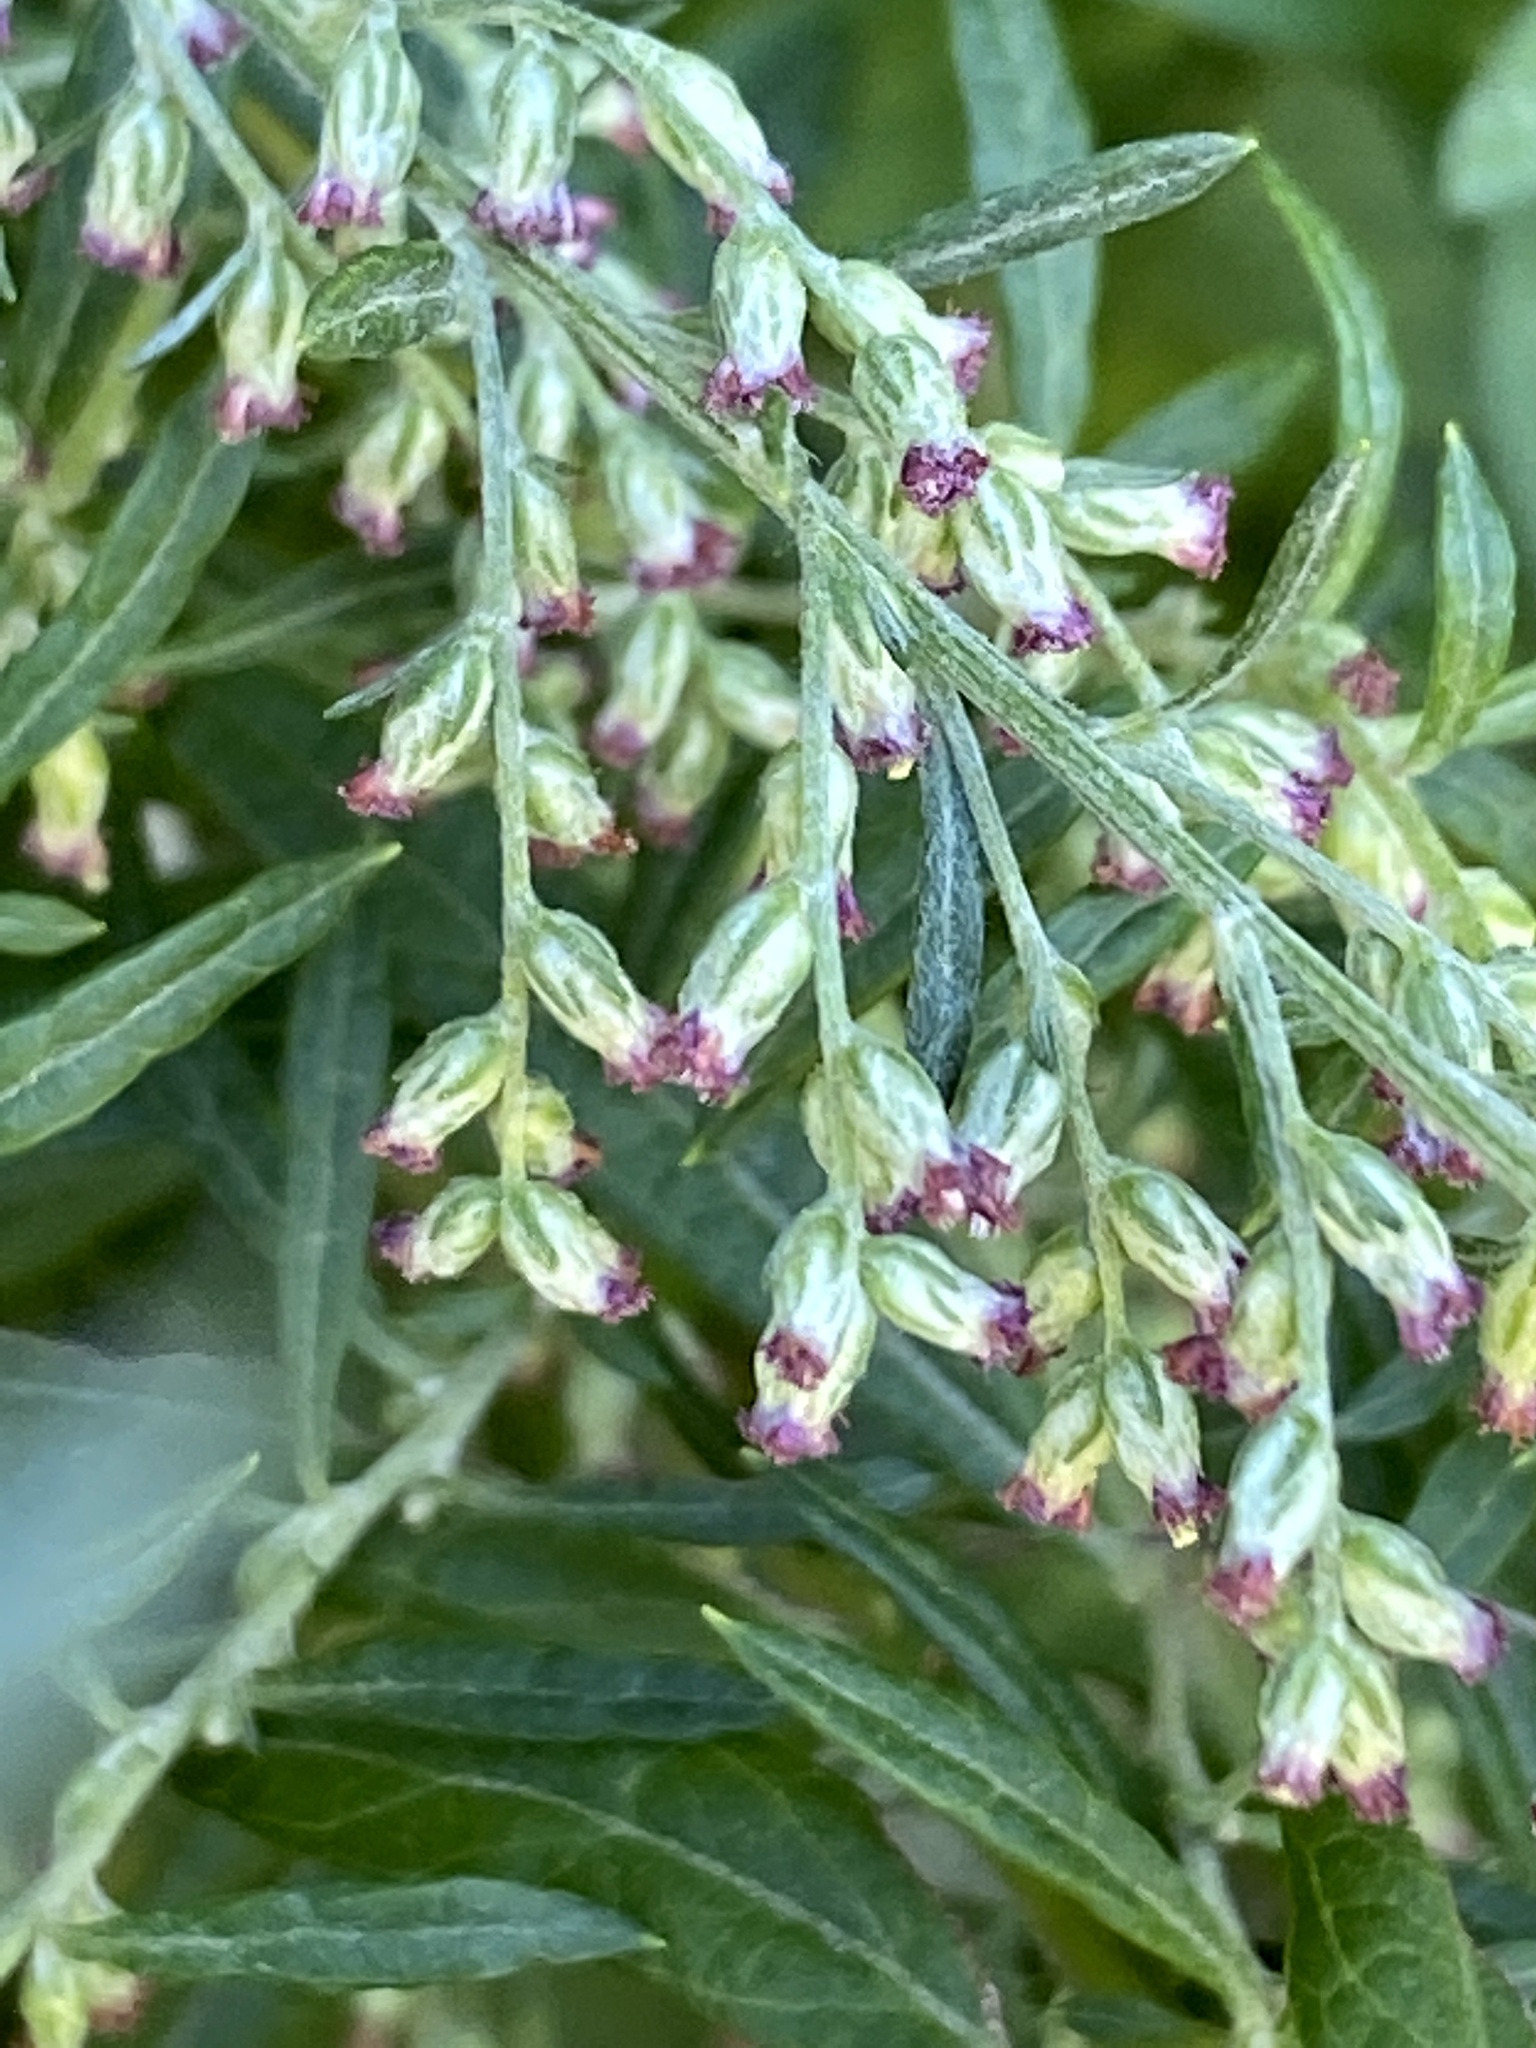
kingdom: Plantae
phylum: Tracheophyta
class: Magnoliopsida
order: Asterales
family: Asteraceae
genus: Artemisia
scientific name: Artemisia vulgaris
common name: Mugwort
